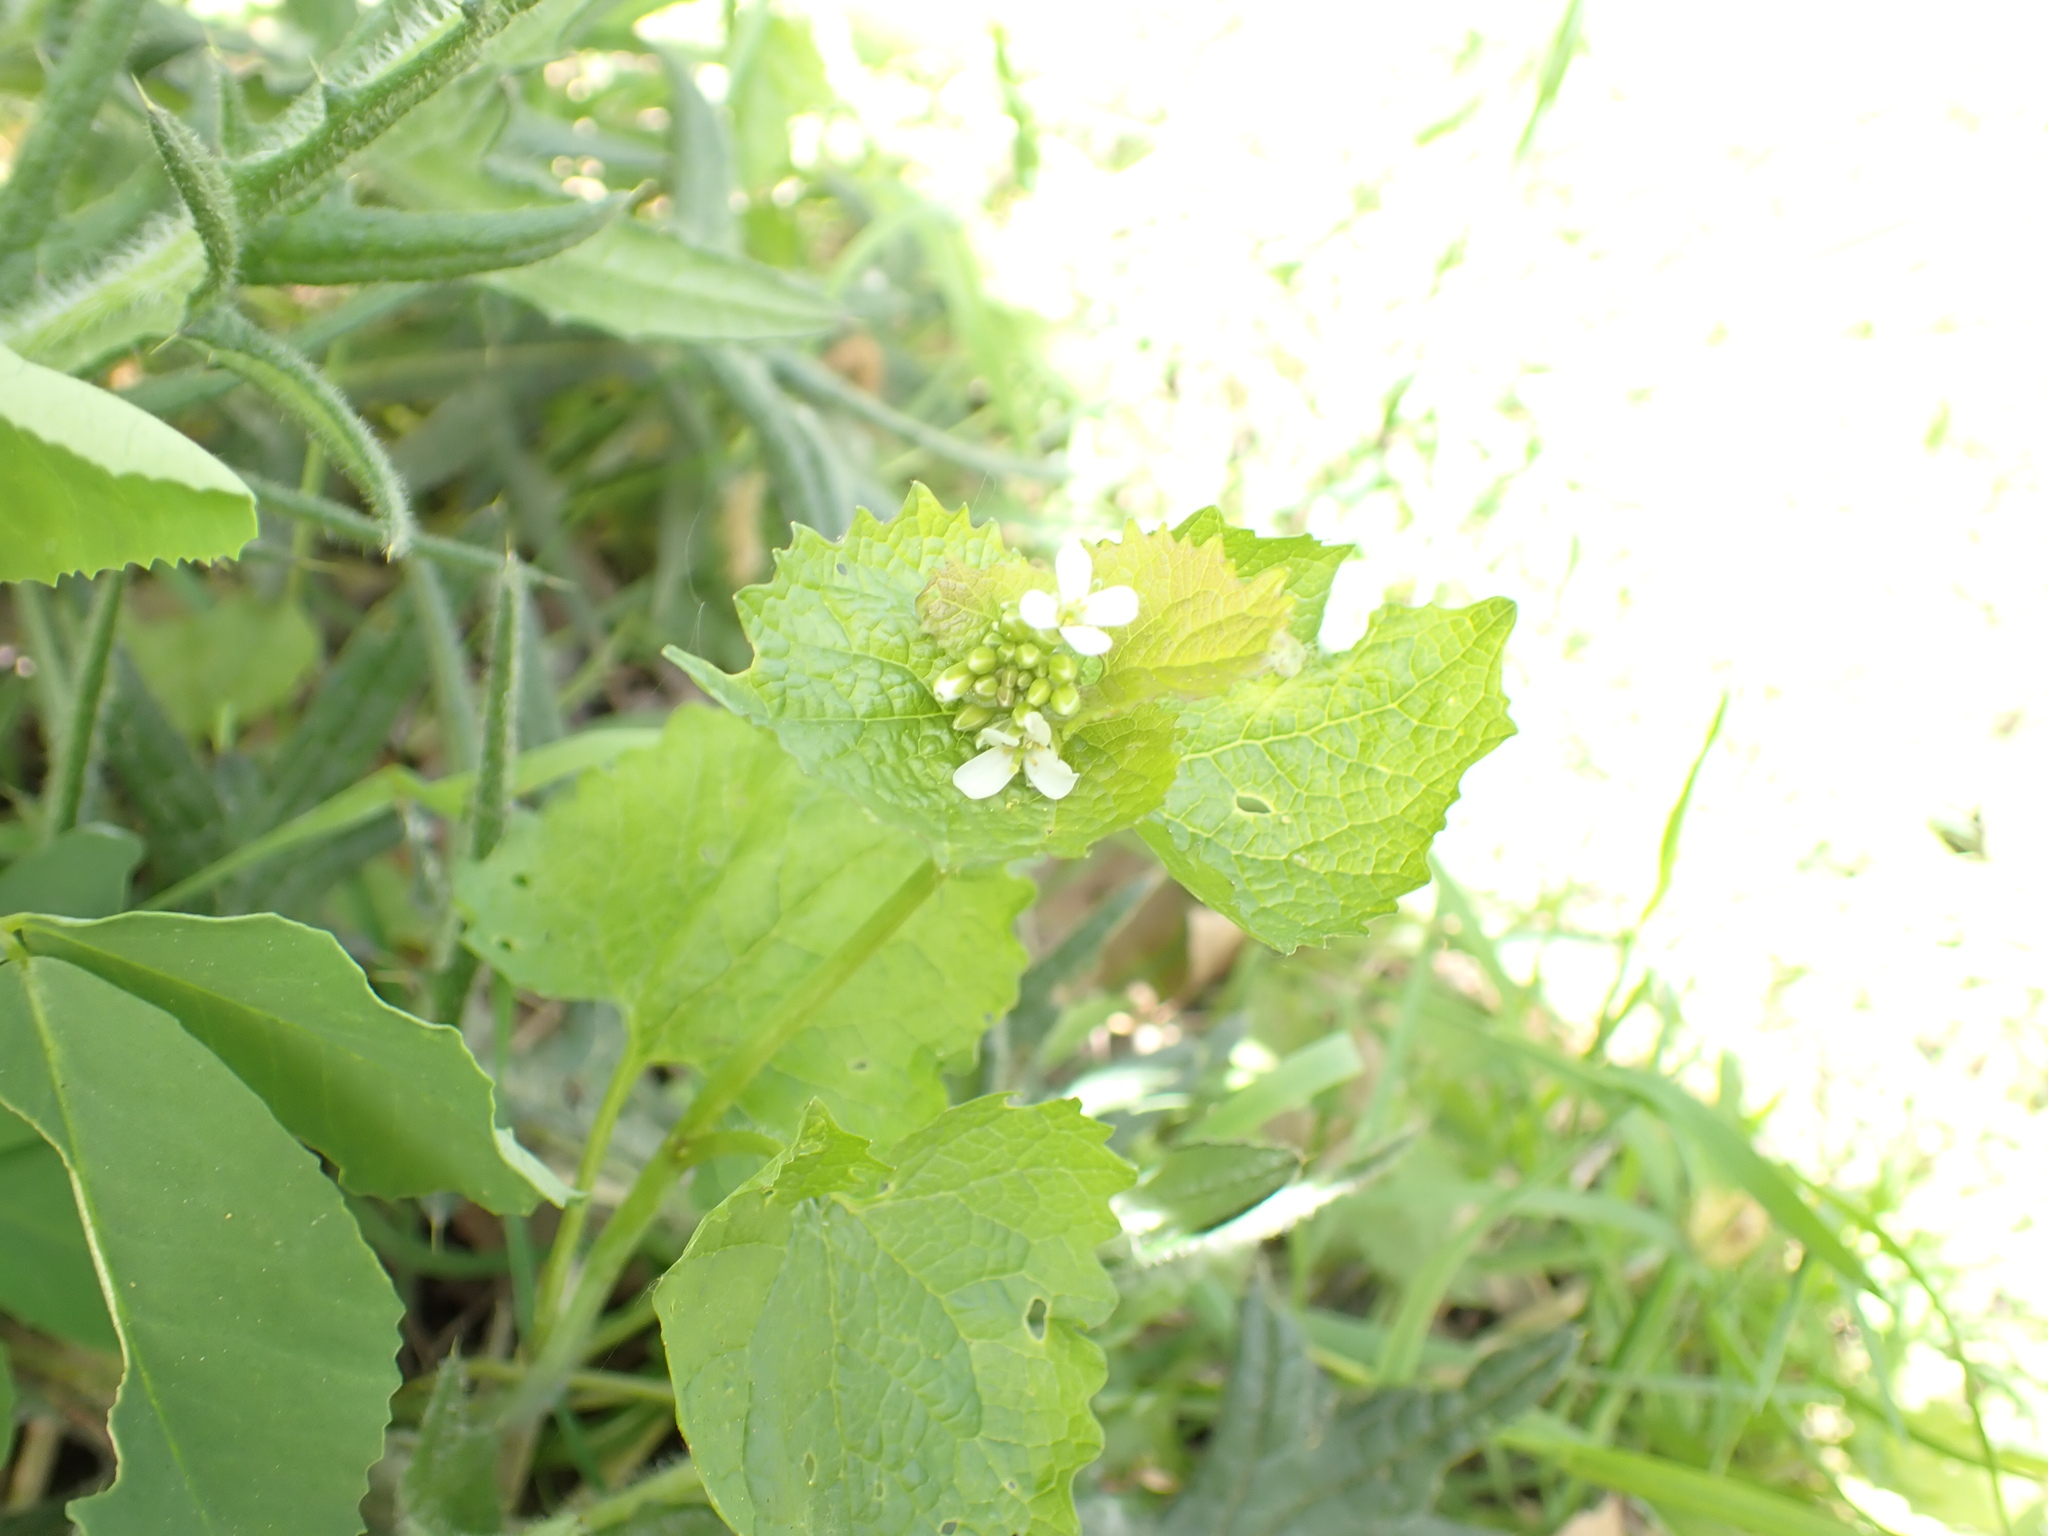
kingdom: Plantae
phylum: Tracheophyta
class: Magnoliopsida
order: Brassicales
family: Brassicaceae
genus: Alliaria
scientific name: Alliaria petiolata
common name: Garlic mustard
